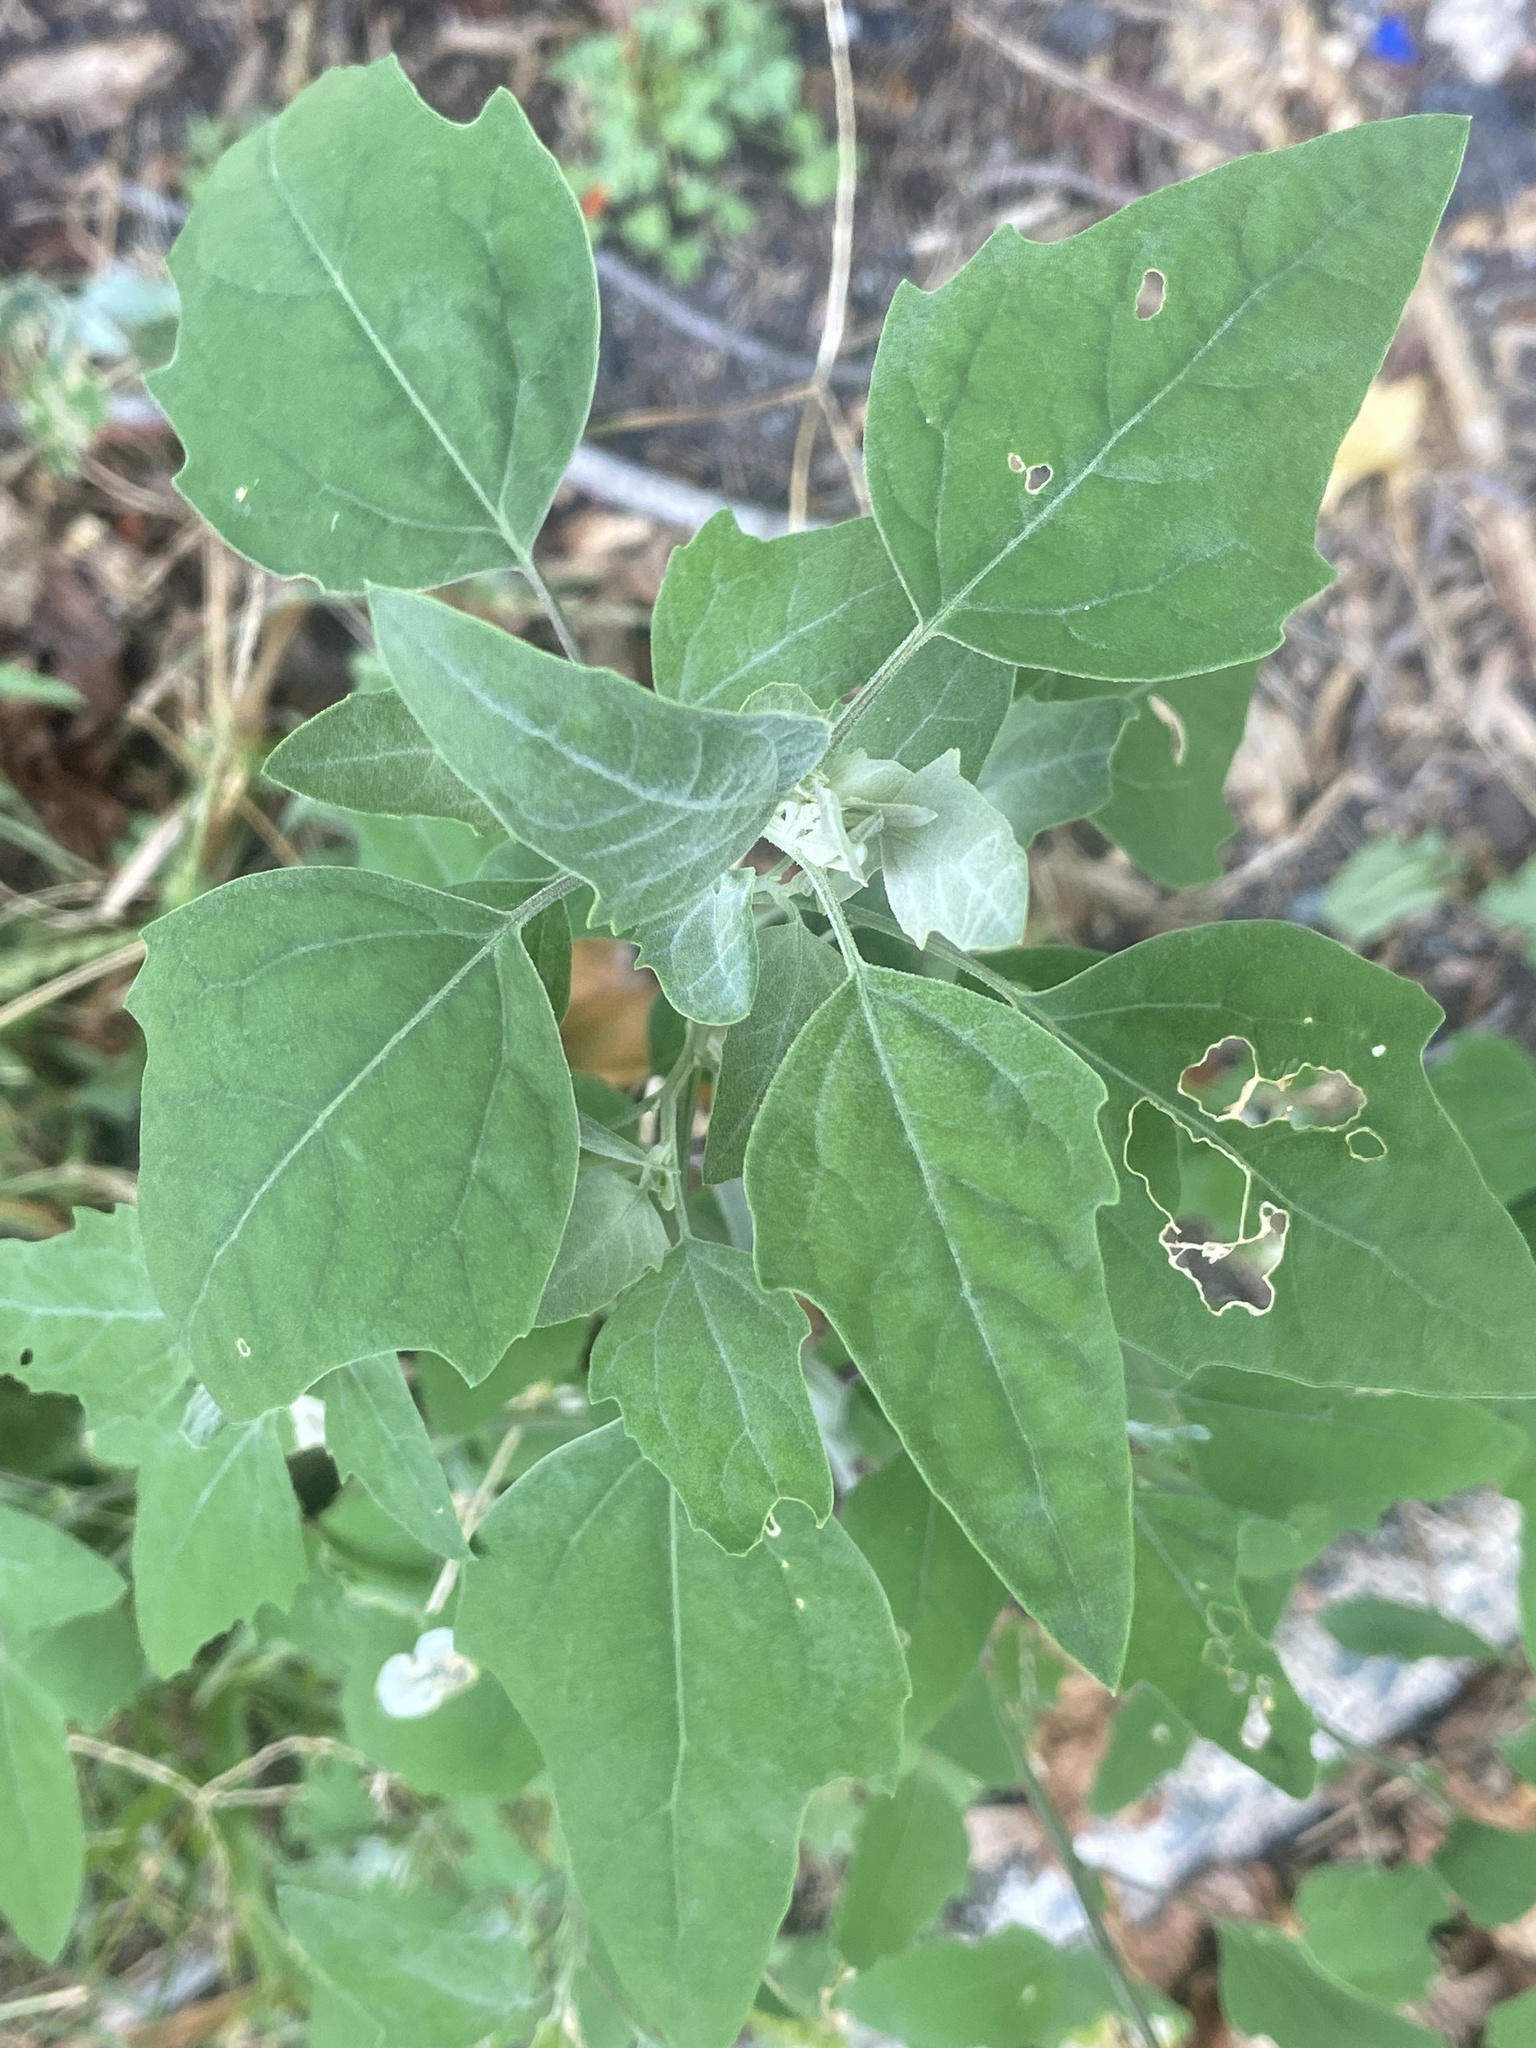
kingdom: Plantae
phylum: Tracheophyta
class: Magnoliopsida
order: Caryophyllales
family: Amaranthaceae
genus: Chenopodium
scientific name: Chenopodium album
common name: Fat-hen
